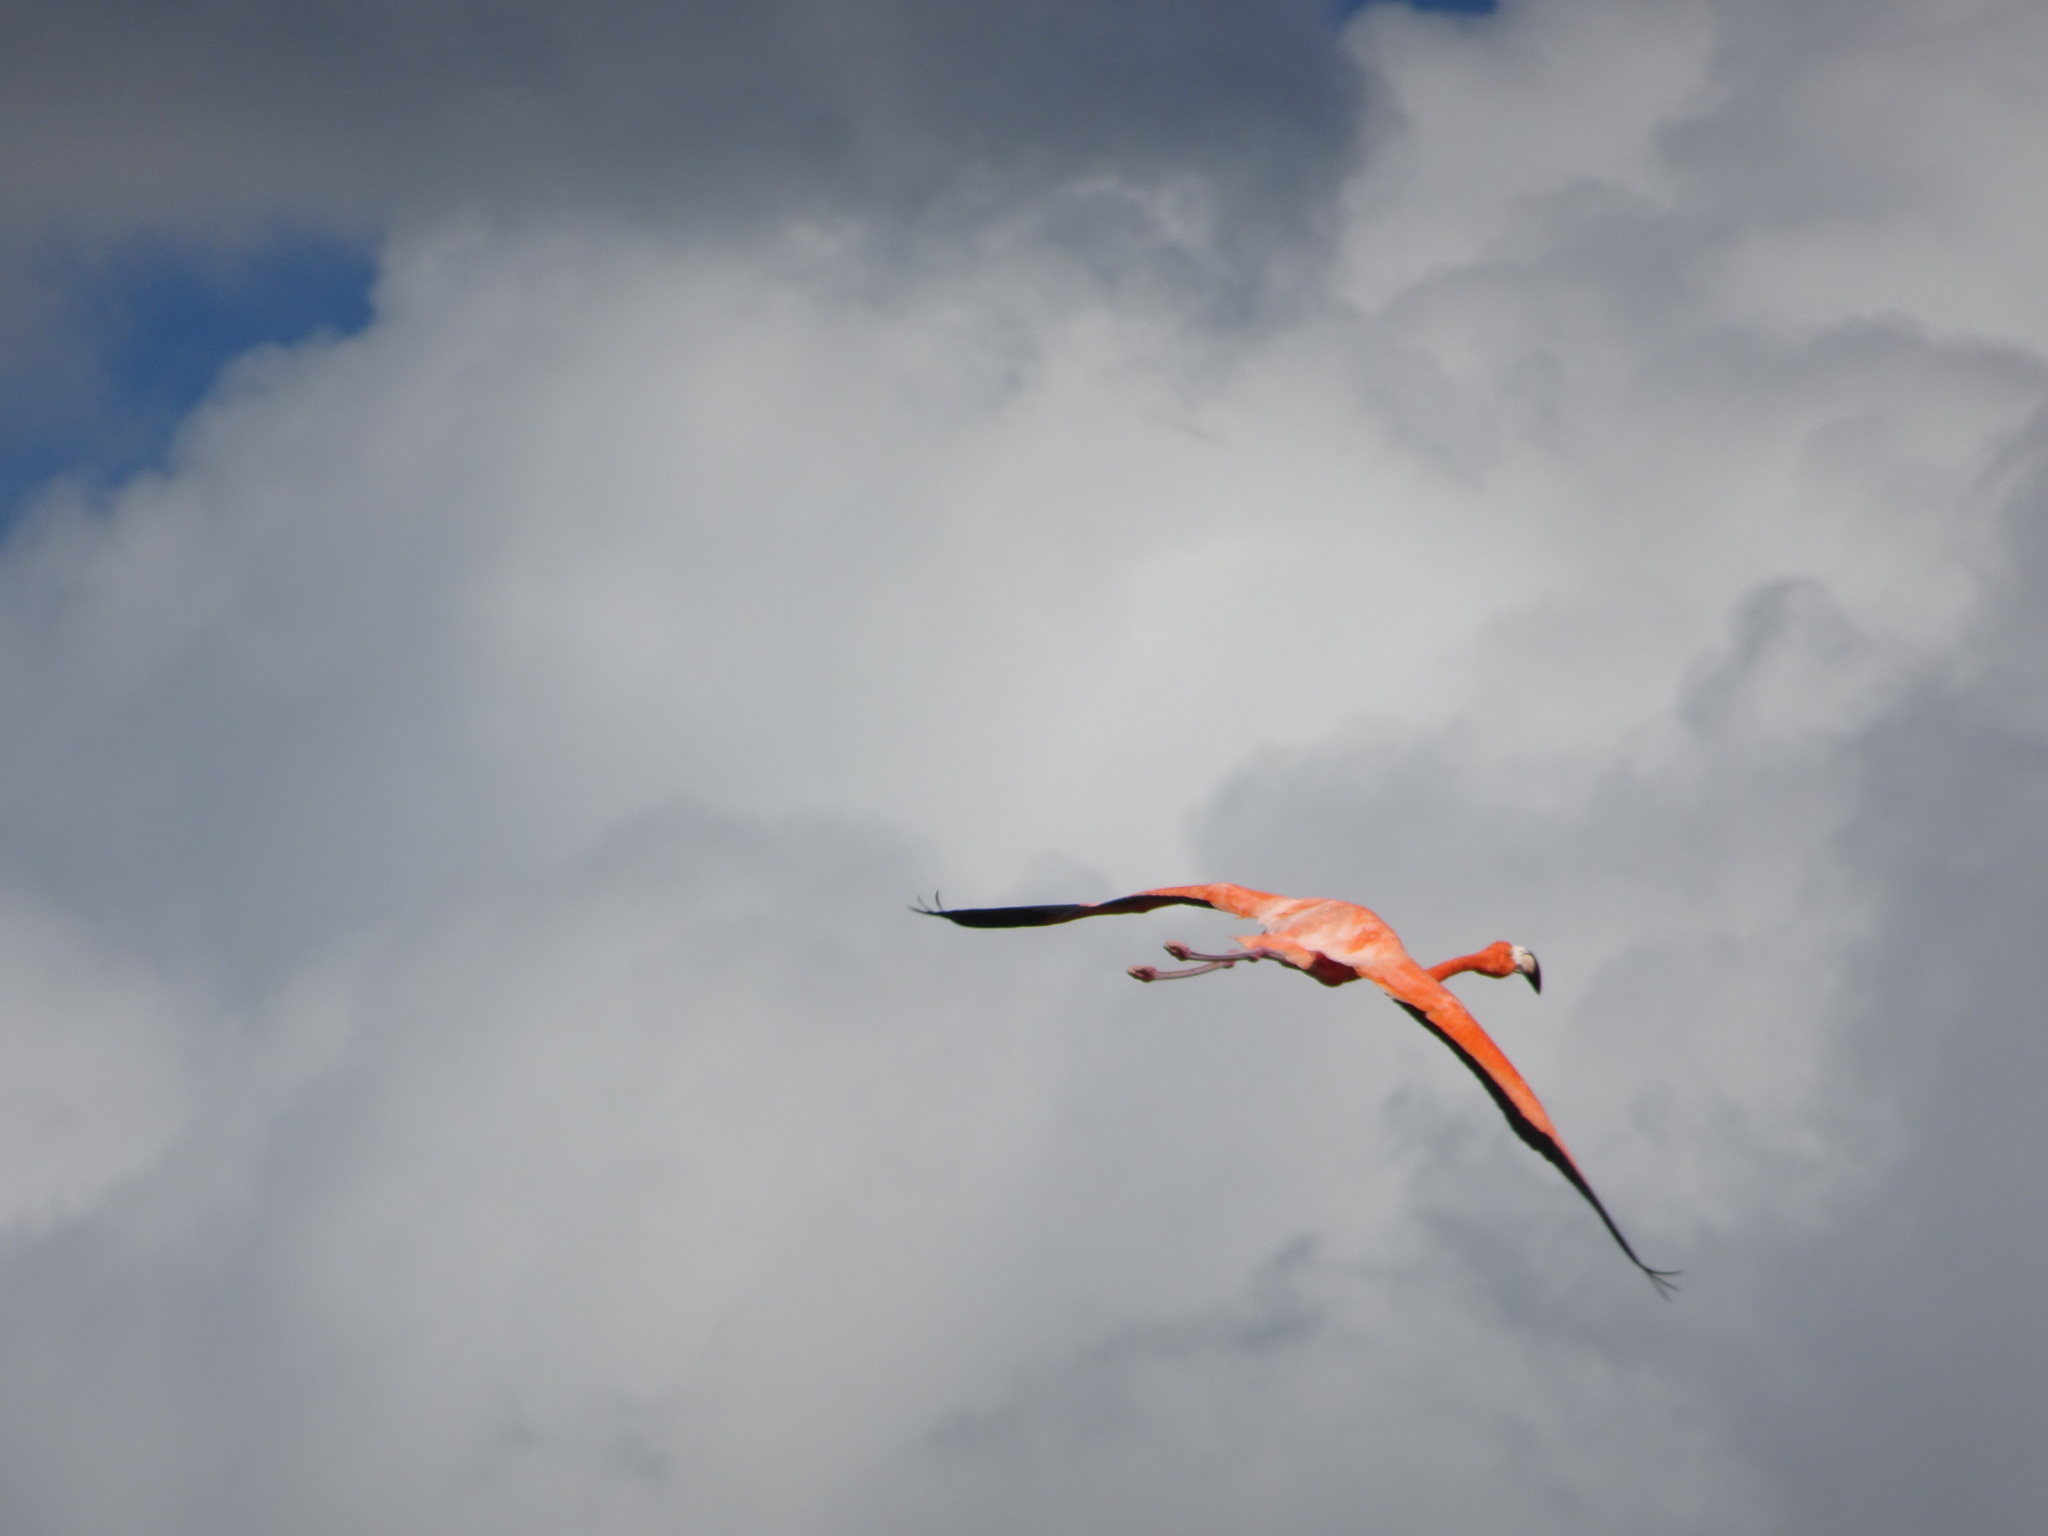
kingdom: Animalia
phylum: Chordata
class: Aves
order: Phoenicopteriformes
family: Phoenicopteridae
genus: Phoenicopterus
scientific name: Phoenicopterus ruber
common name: American flamingo
